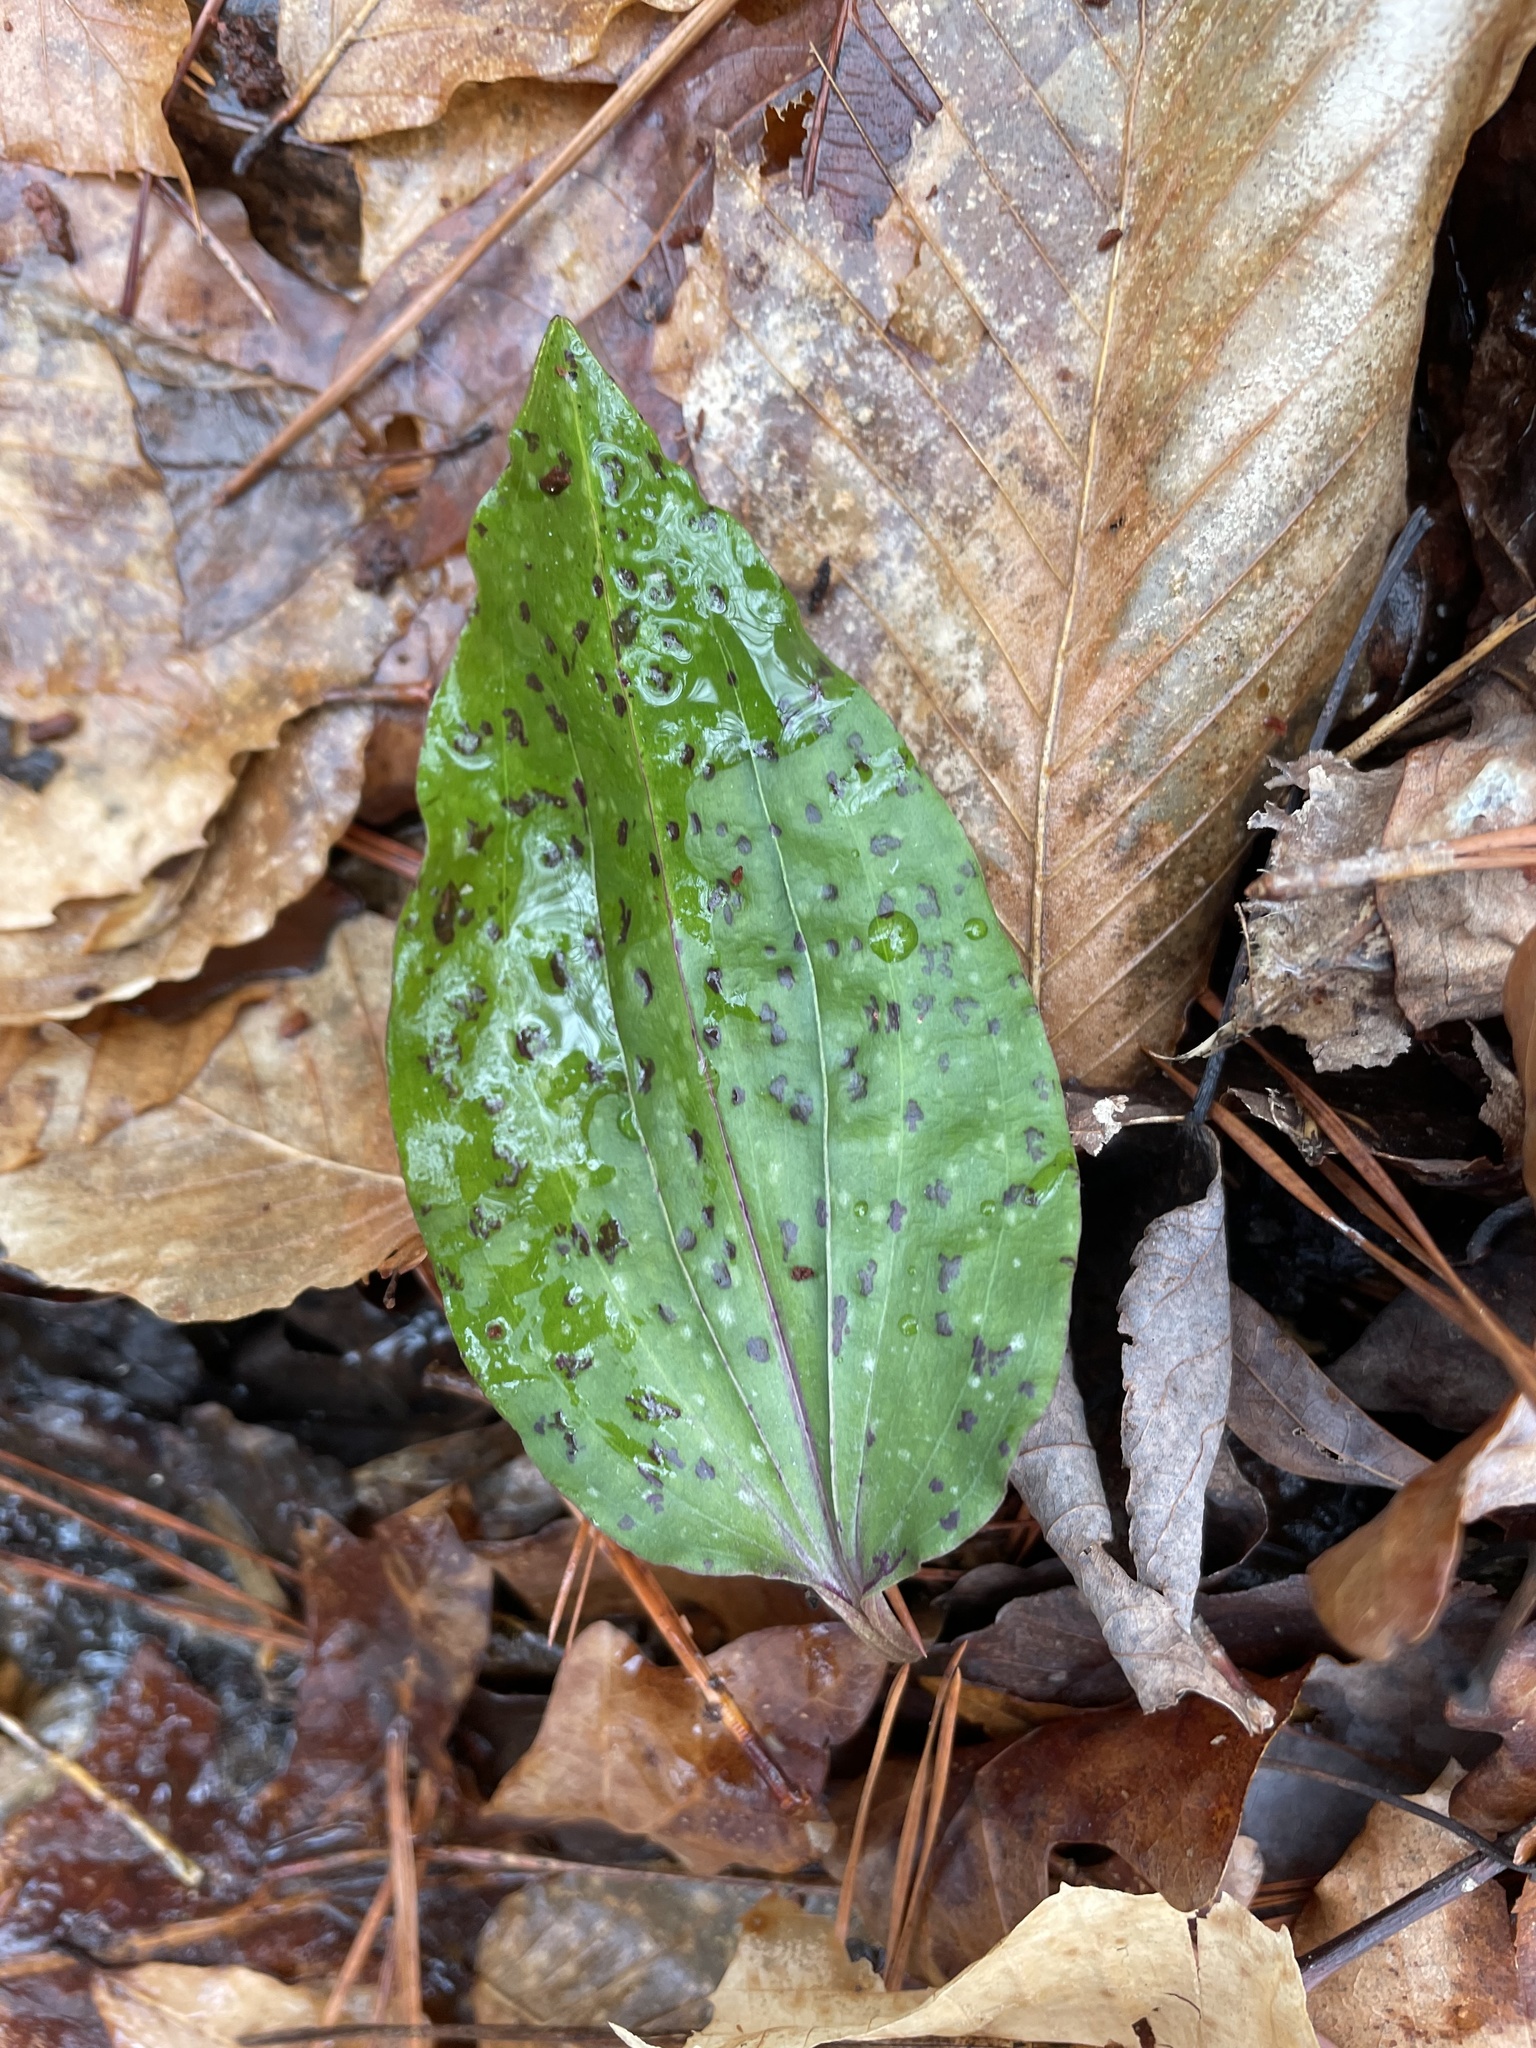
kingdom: Plantae
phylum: Tracheophyta
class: Liliopsida
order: Asparagales
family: Orchidaceae
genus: Tipularia
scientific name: Tipularia discolor
